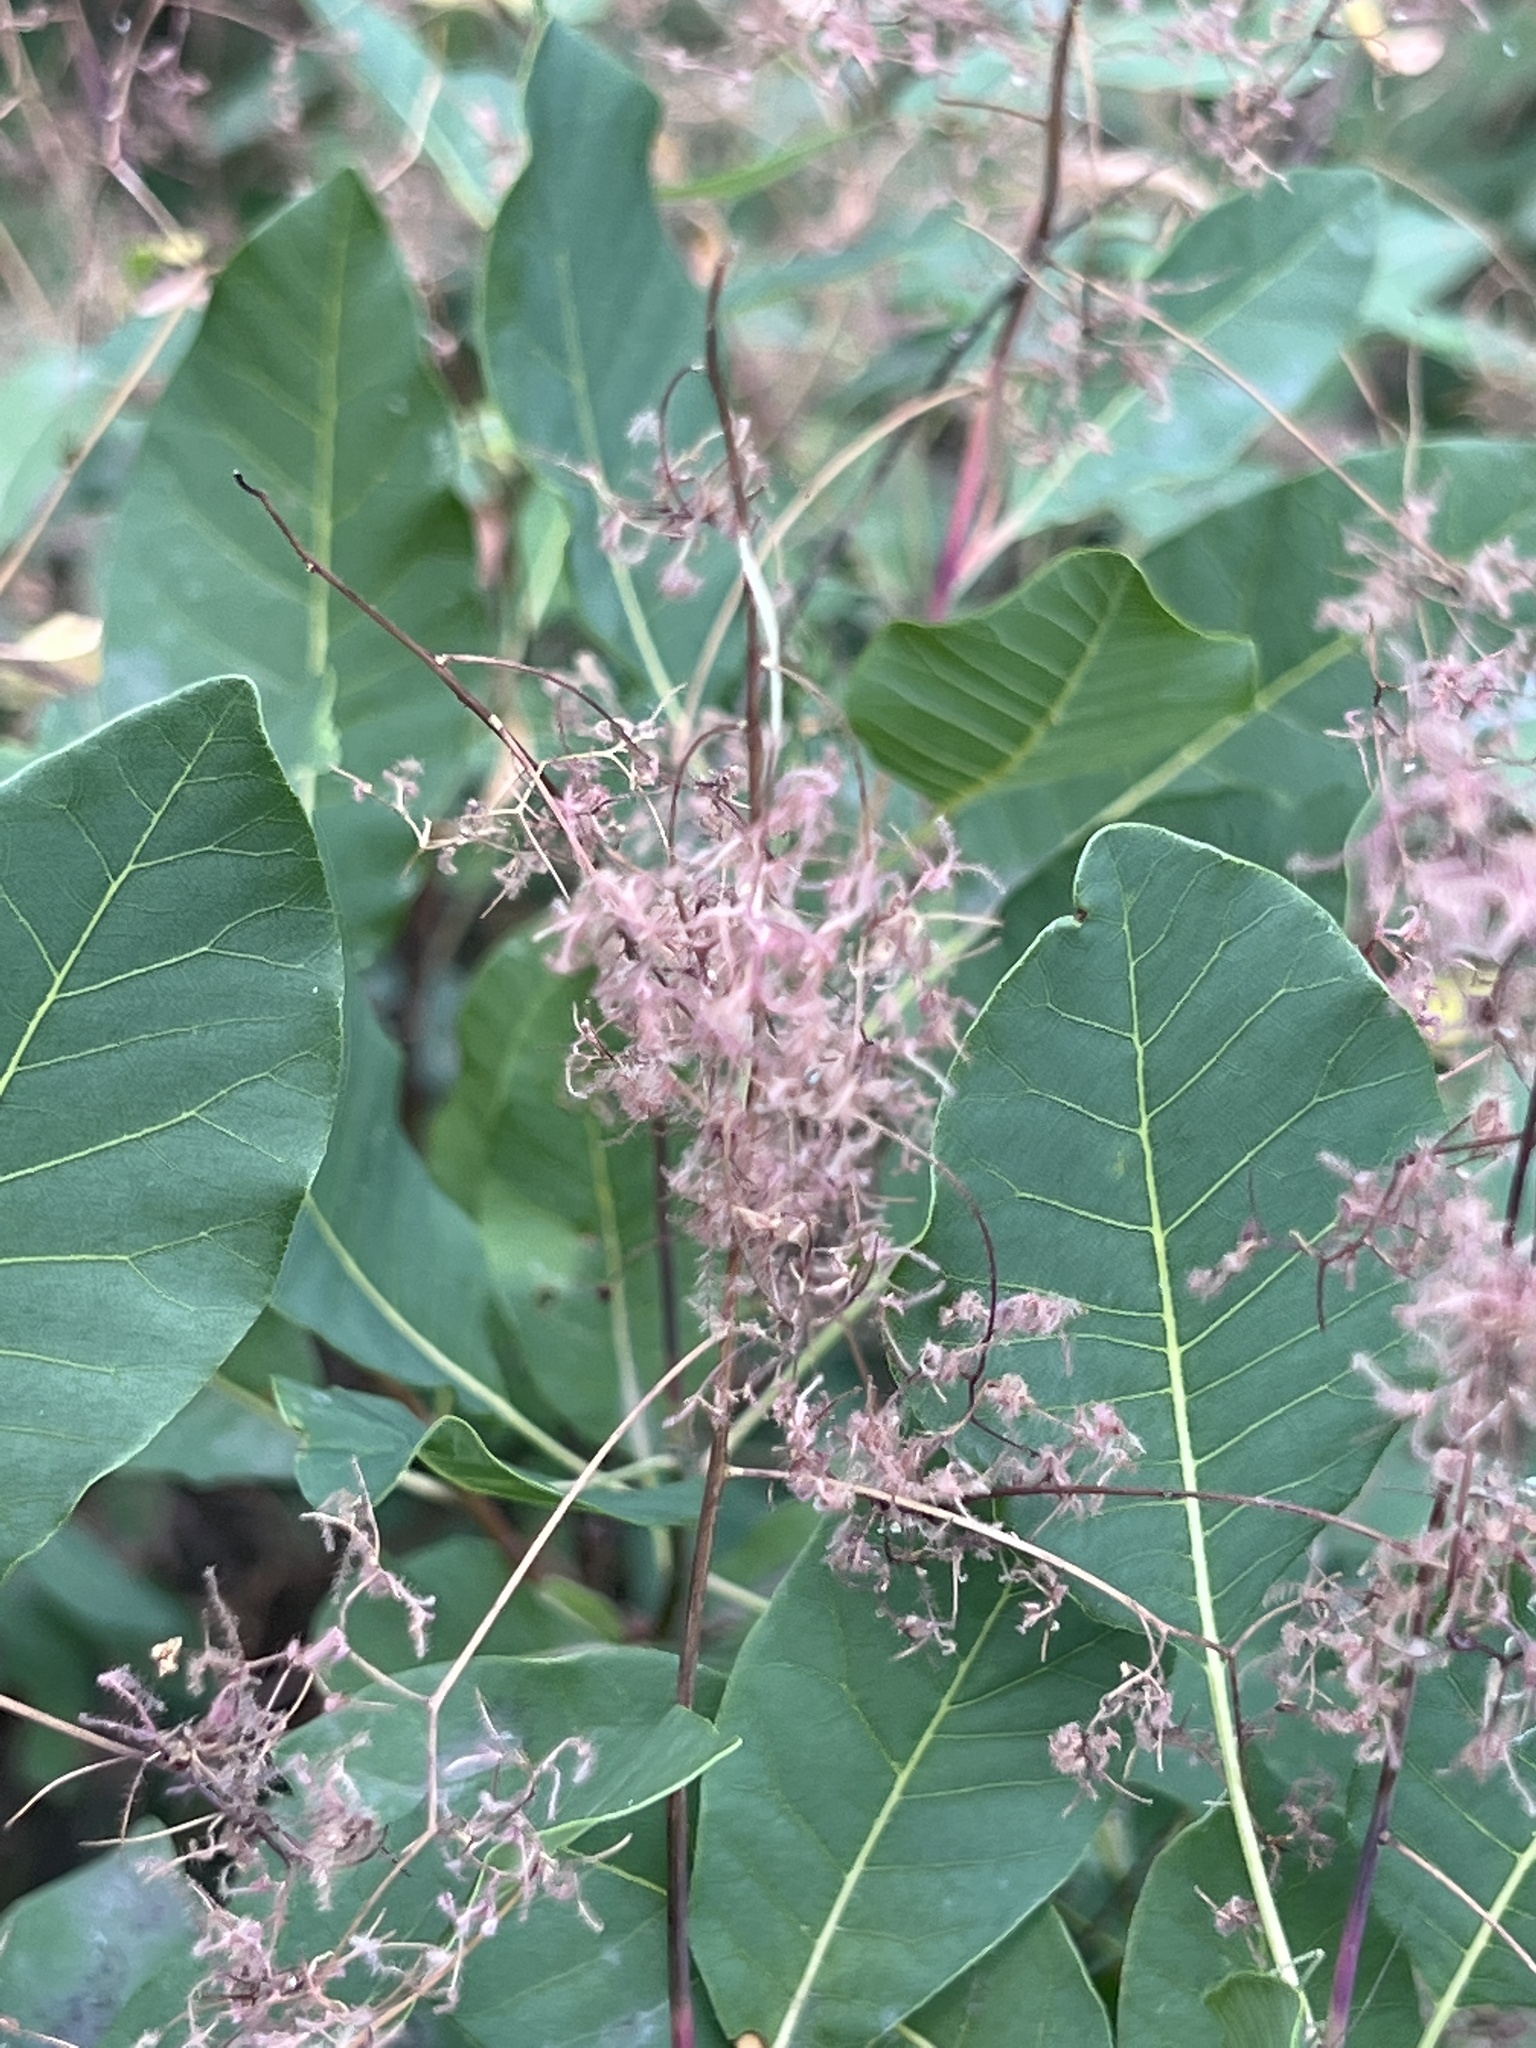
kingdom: Plantae
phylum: Tracheophyta
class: Magnoliopsida
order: Sapindales
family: Anacardiaceae
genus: Cotinus
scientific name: Cotinus coggygria
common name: Smoke-tree
